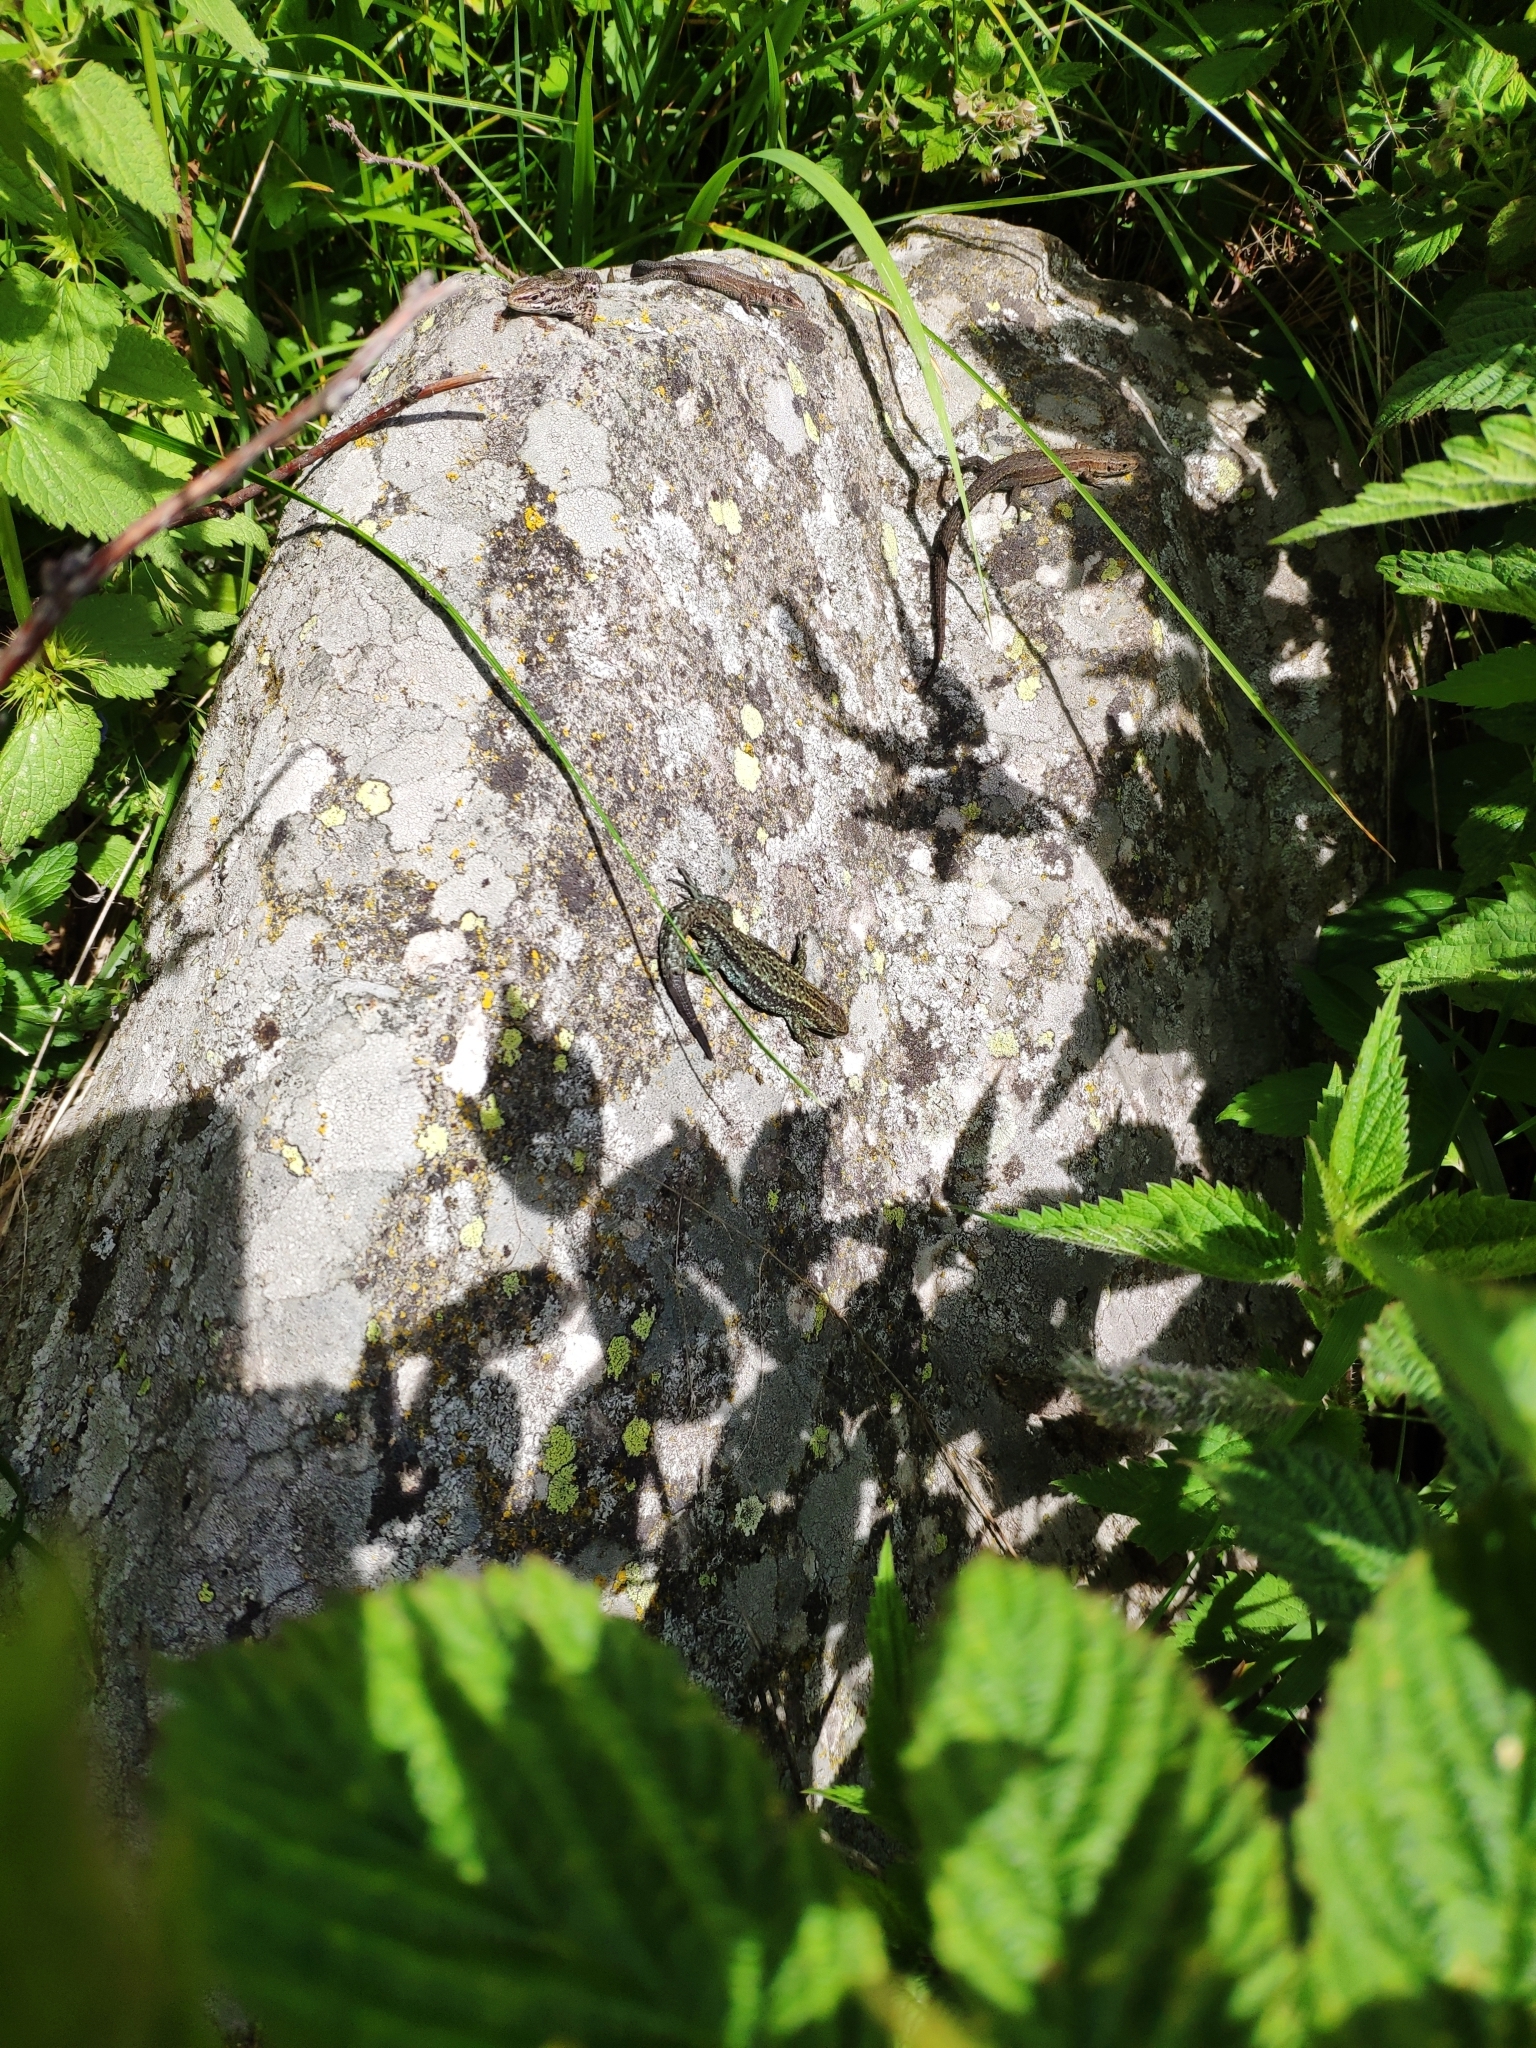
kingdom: Animalia
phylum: Chordata
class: Squamata
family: Lacertidae
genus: Zootoca
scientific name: Zootoca vivipara
